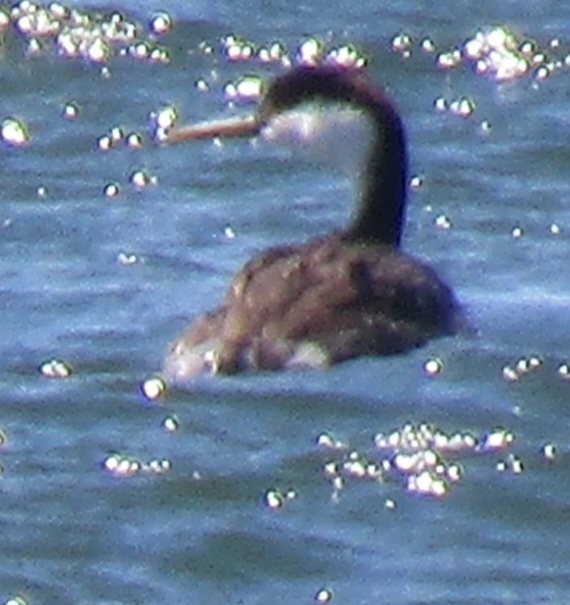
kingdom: Animalia
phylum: Chordata
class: Aves
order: Podicipediformes
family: Podicipedidae
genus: Aechmophorus
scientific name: Aechmophorus occidentalis
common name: Western grebe
